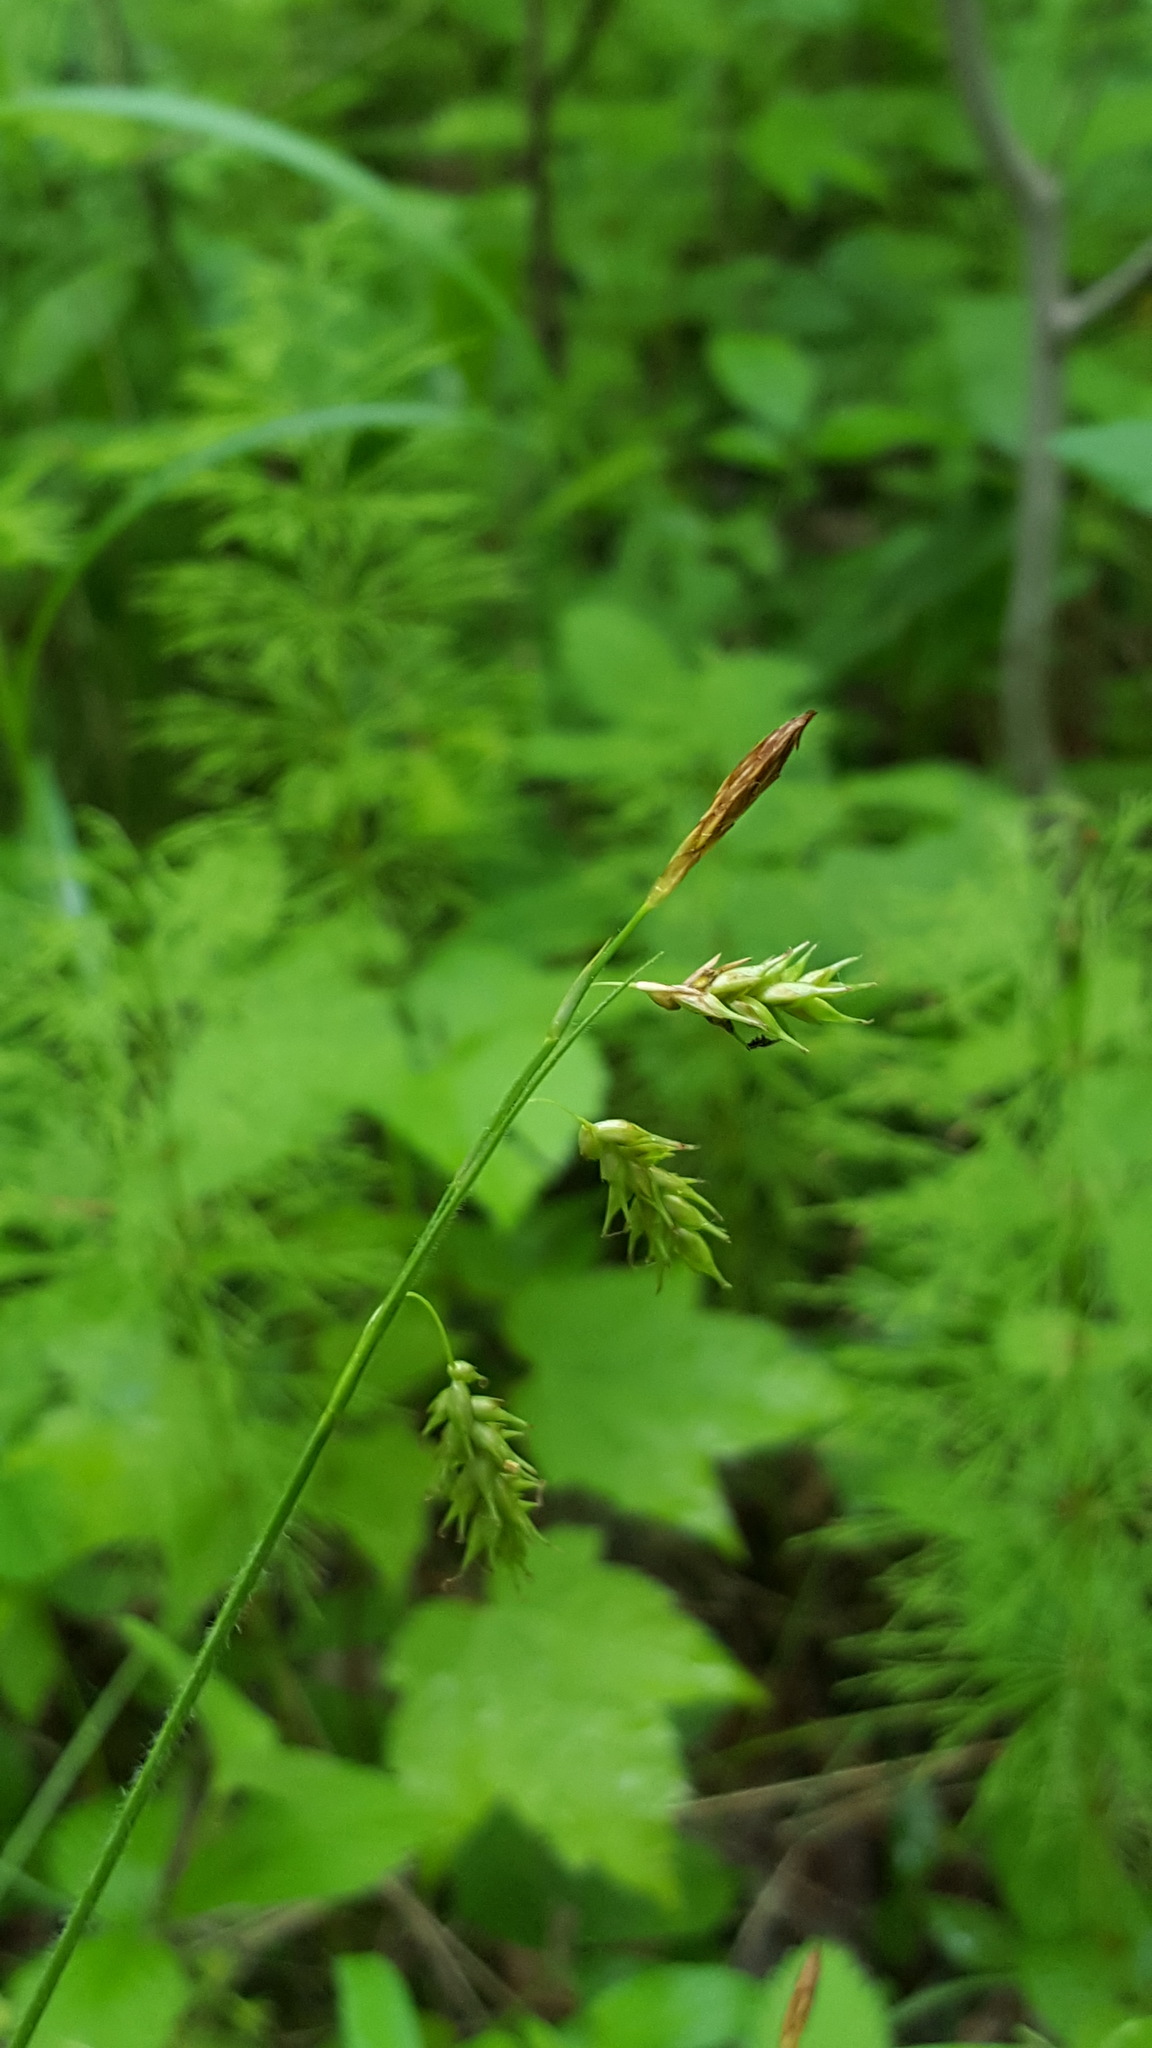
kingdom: Plantae
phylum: Tracheophyta
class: Liliopsida
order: Poales
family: Cyperaceae
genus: Carex
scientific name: Carex castanea
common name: Chestnut sedge
